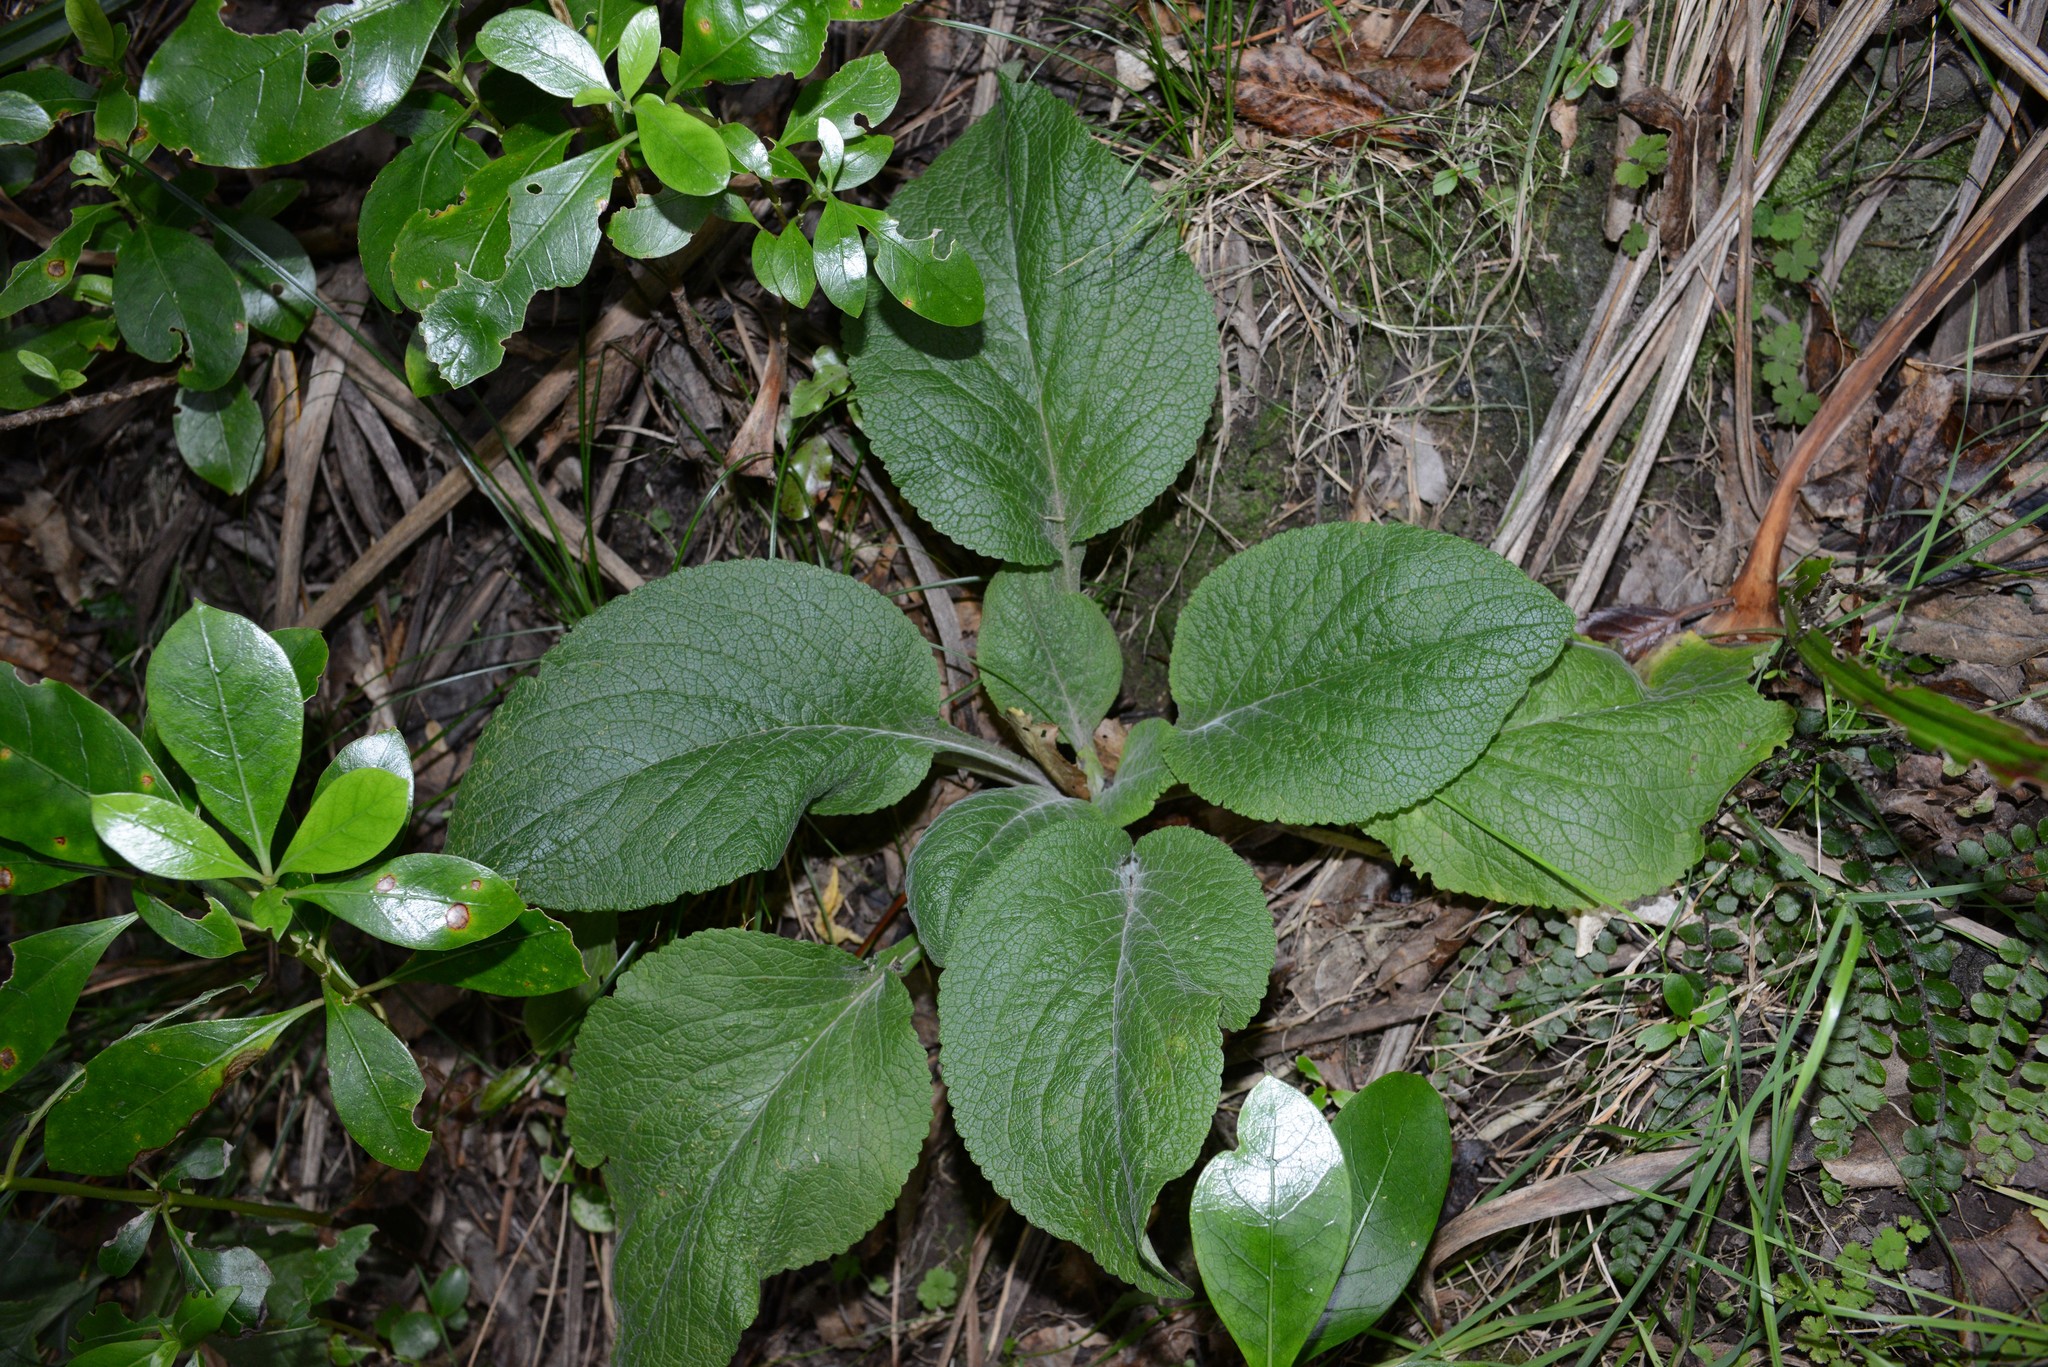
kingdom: Plantae
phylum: Tracheophyta
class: Magnoliopsida
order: Lamiales
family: Plantaginaceae
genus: Digitalis
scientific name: Digitalis purpurea
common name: Foxglove
